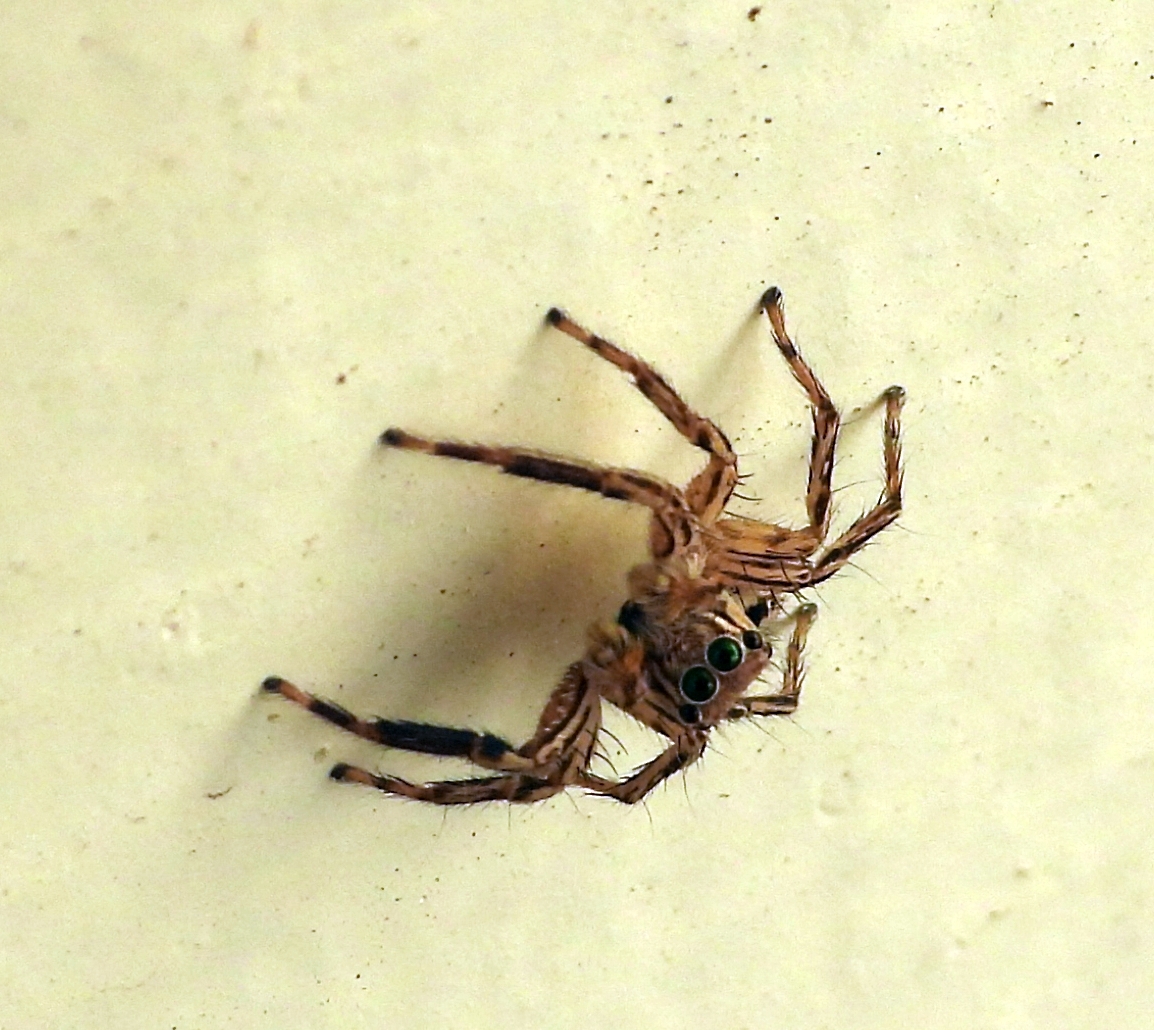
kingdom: Animalia
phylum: Arthropoda
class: Arachnida
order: Araneae
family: Salticidae
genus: Plexippus
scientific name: Plexippus petersi
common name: Jumping spider
